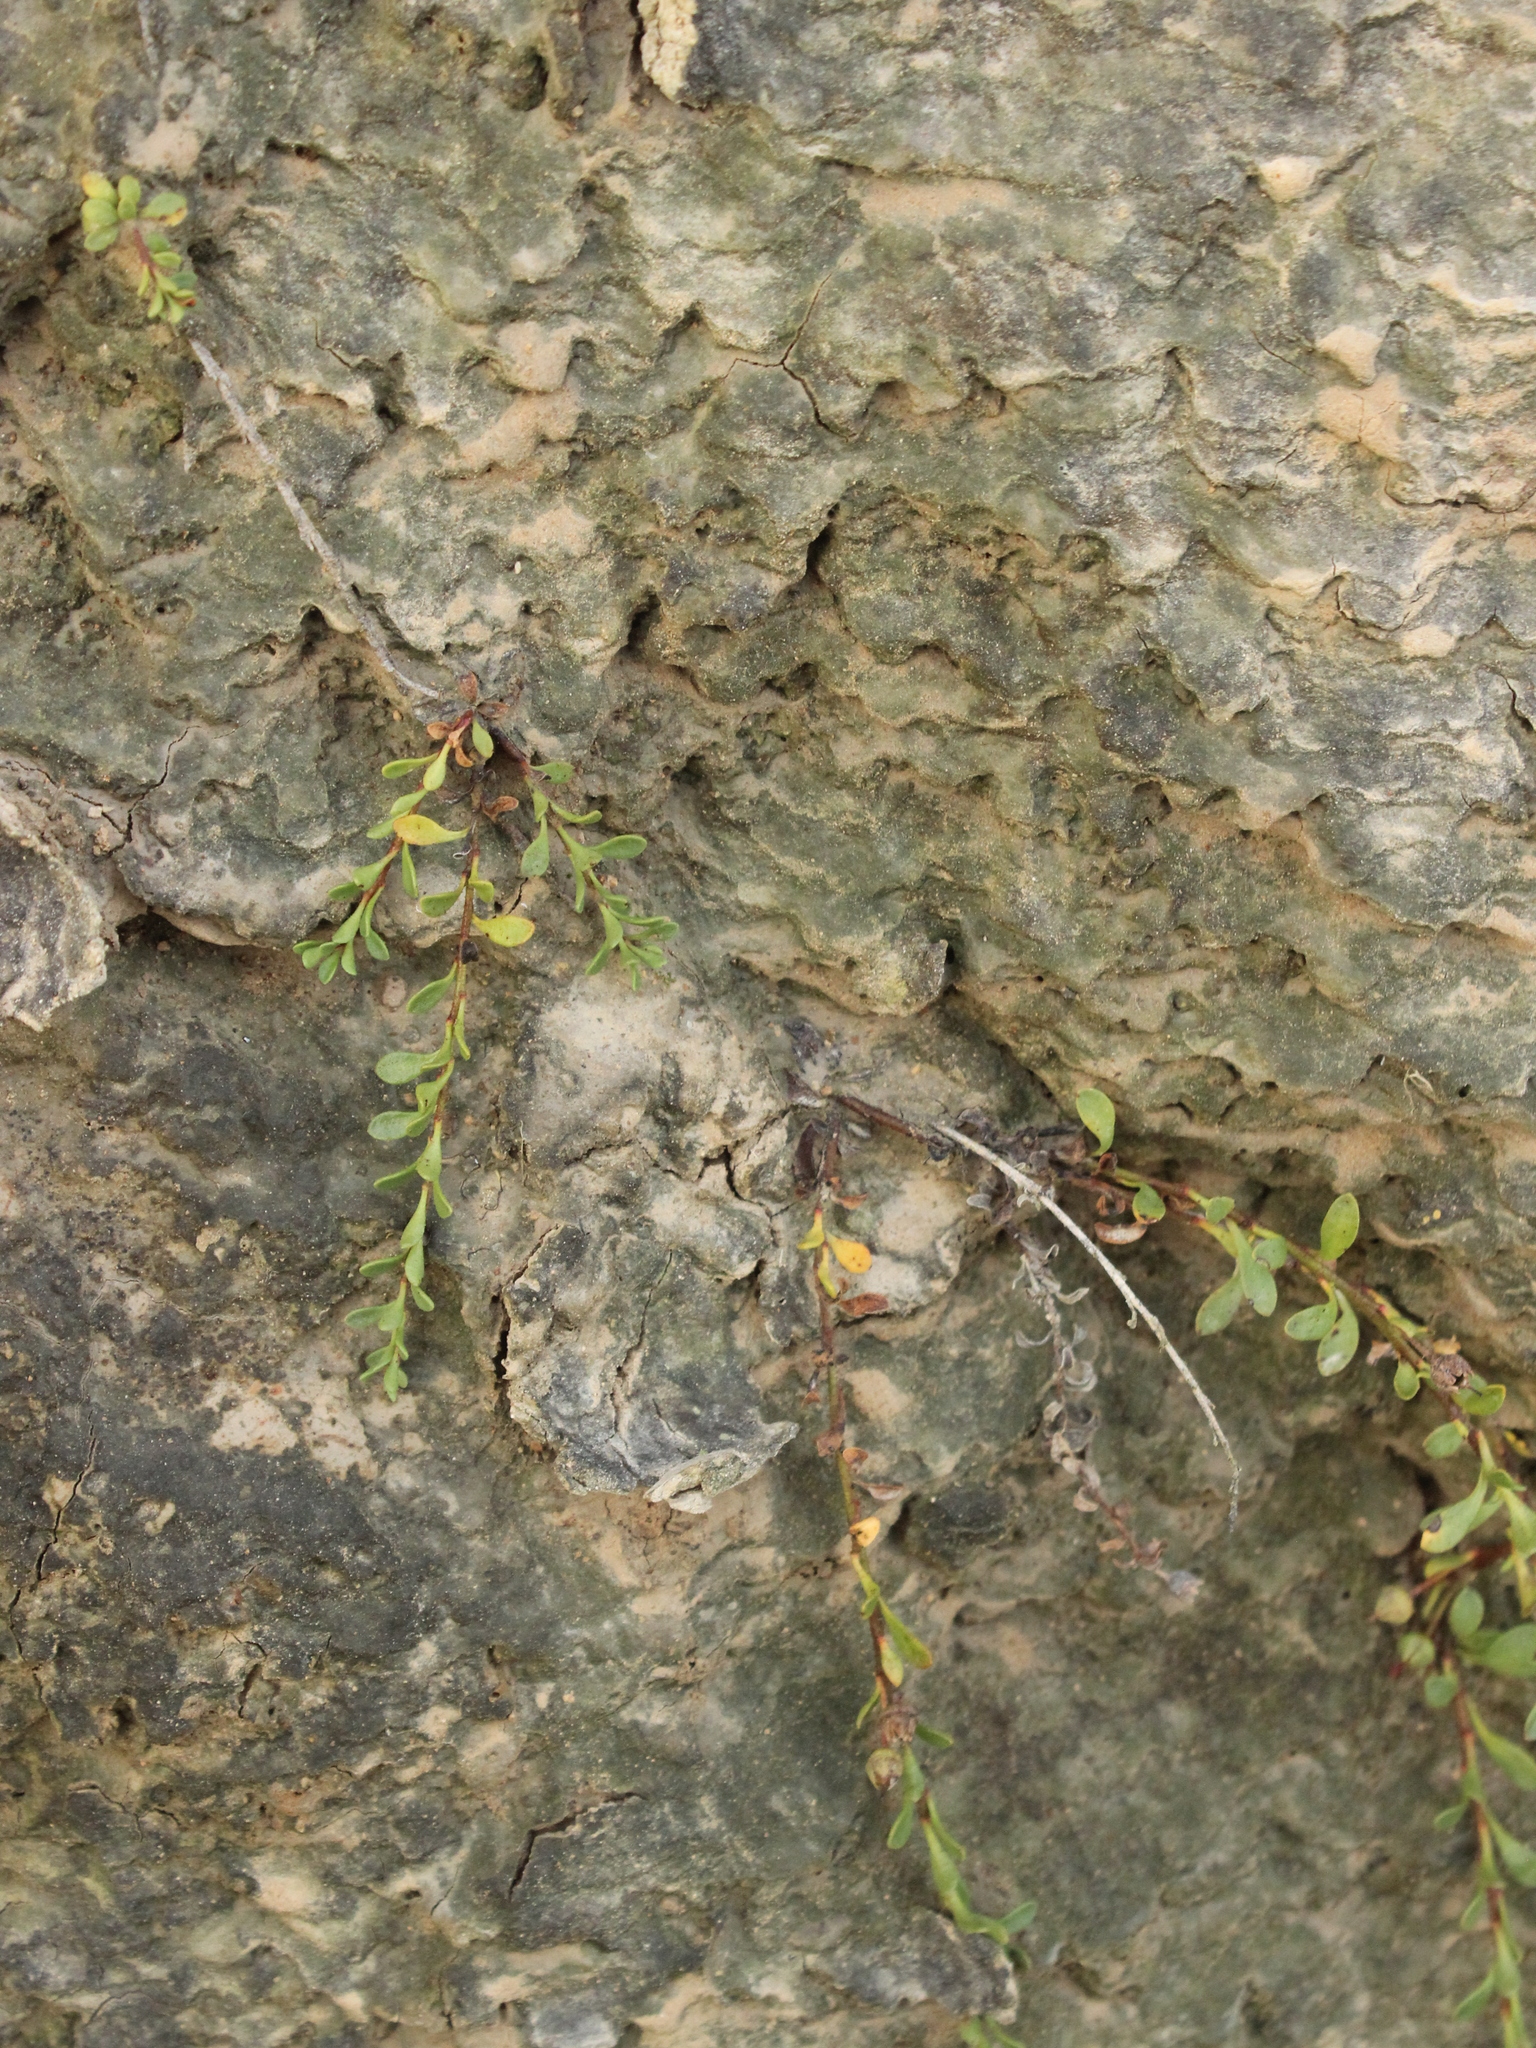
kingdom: Plantae
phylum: Tracheophyta
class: Magnoliopsida
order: Ericales
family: Primulaceae
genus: Samolus
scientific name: Samolus repens
